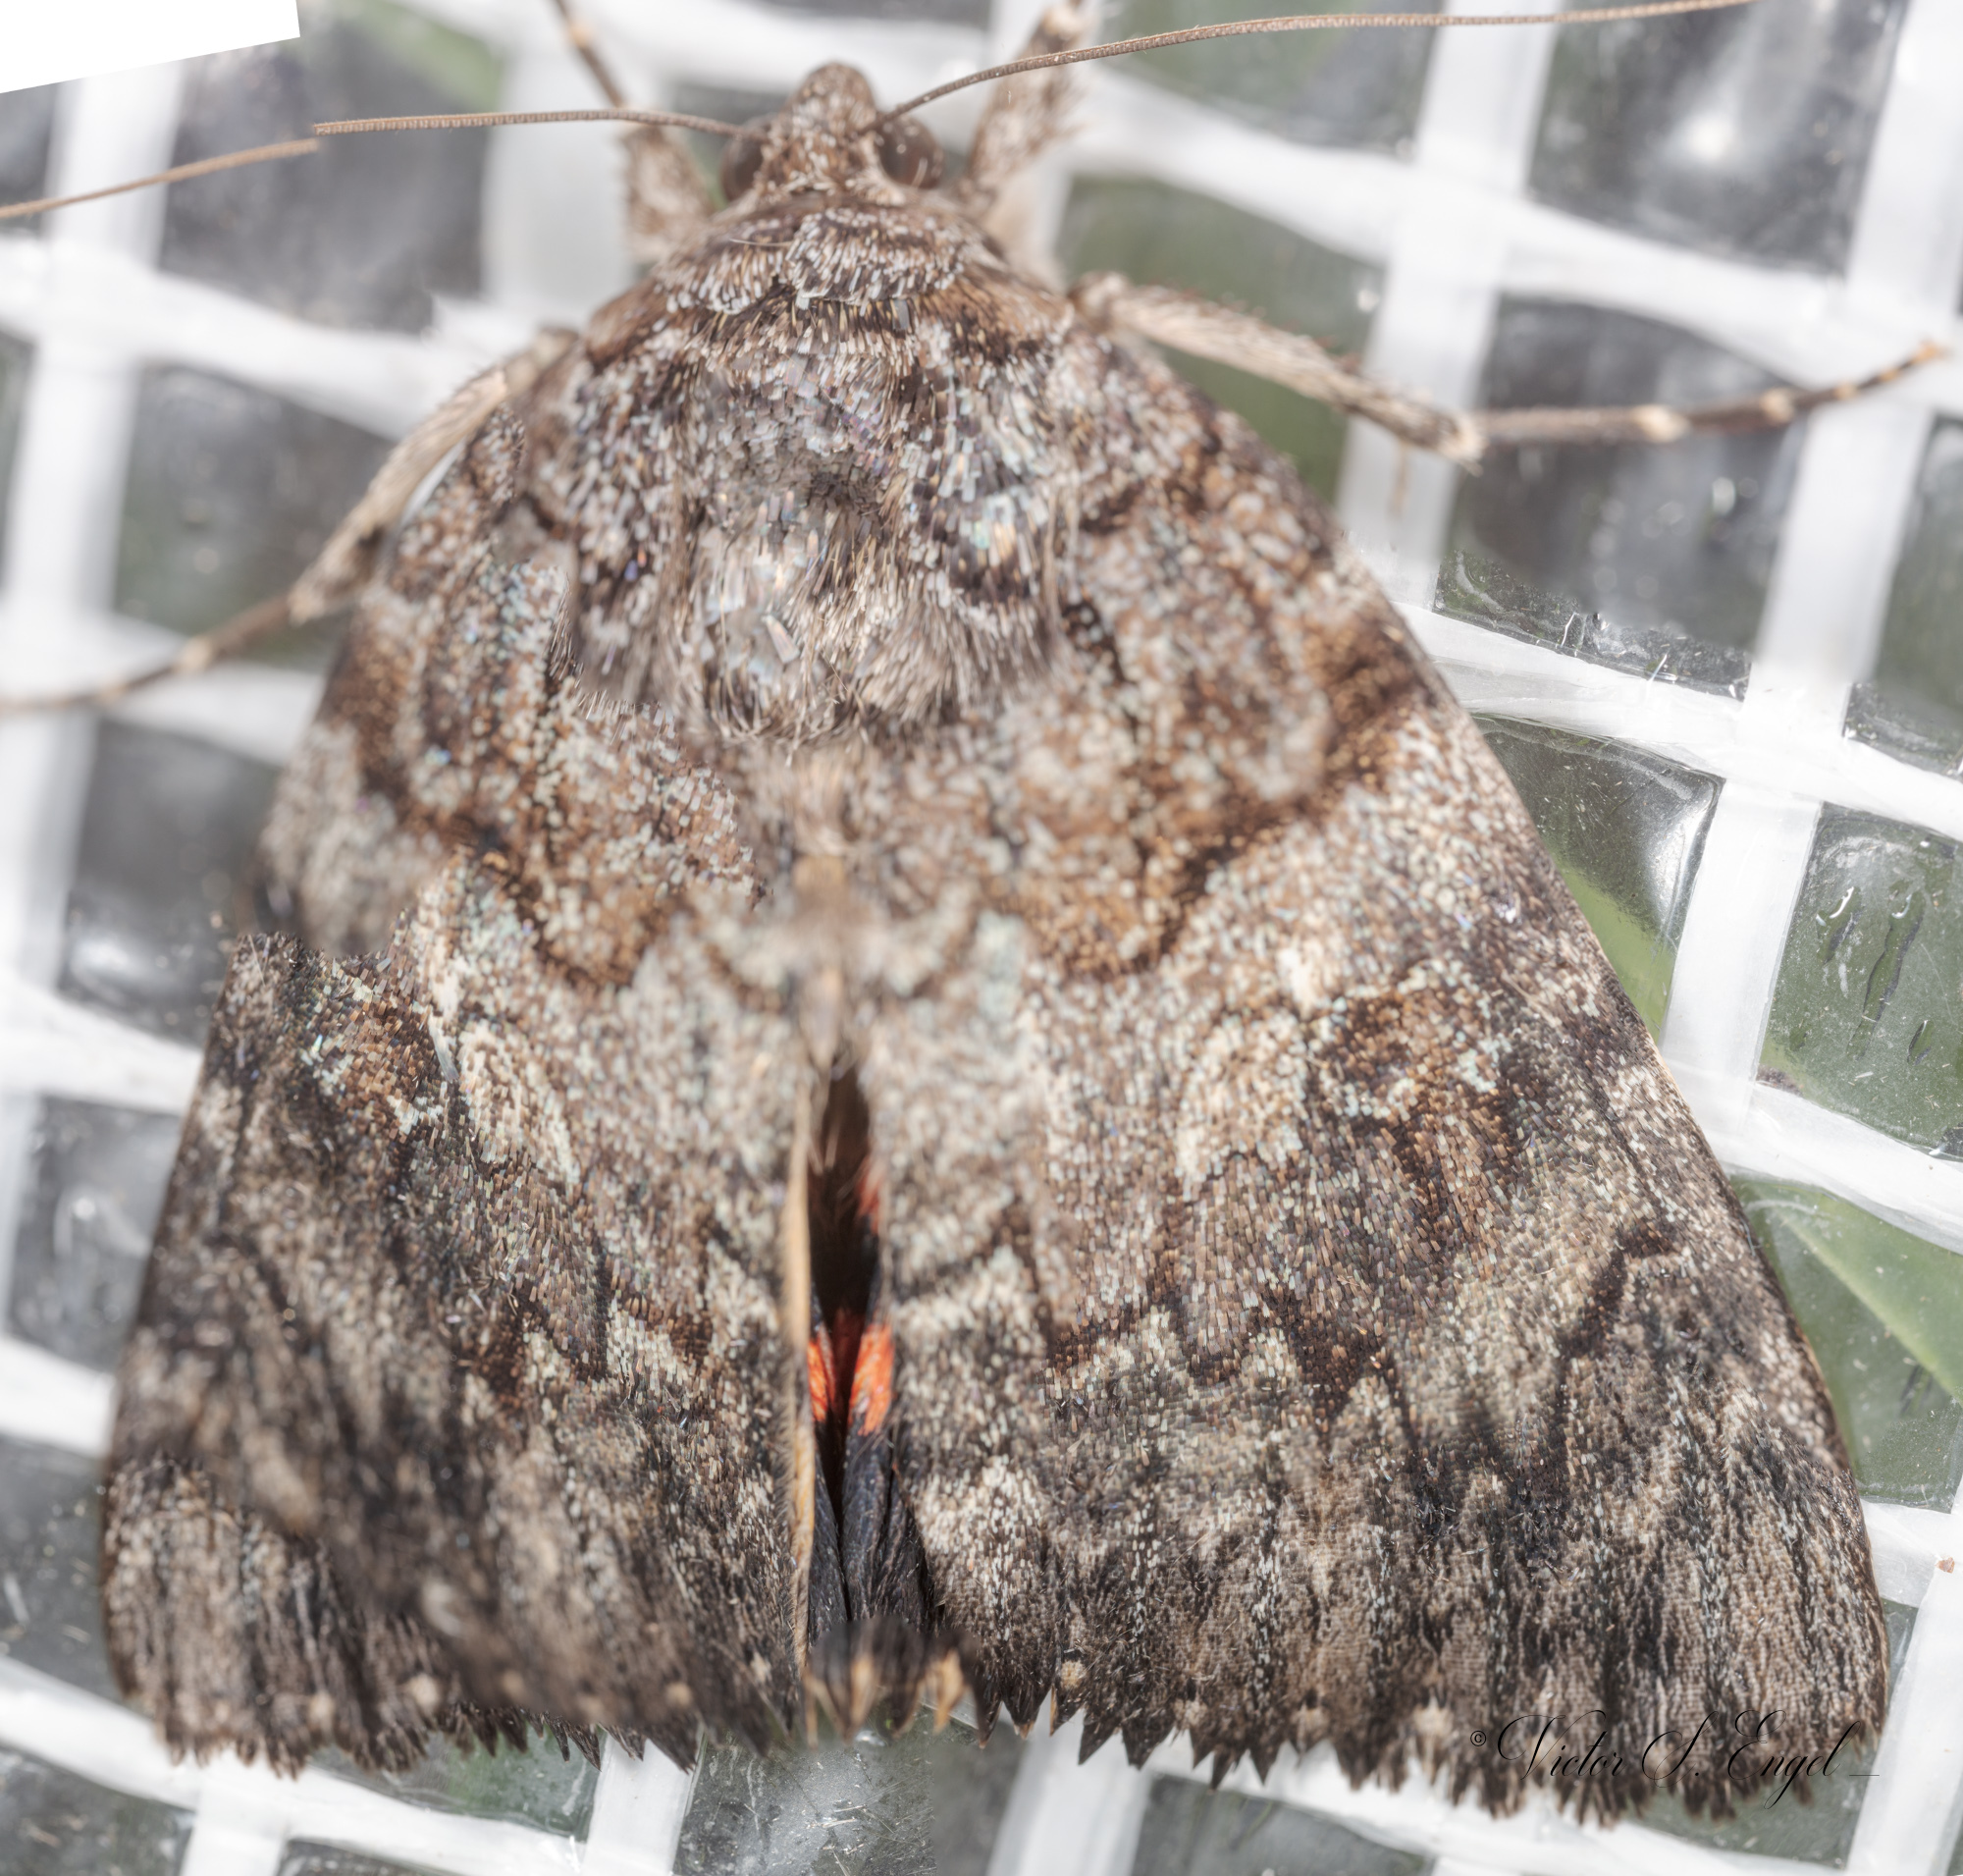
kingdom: Animalia
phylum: Arthropoda
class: Insecta
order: Lepidoptera
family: Erebidae
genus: Catocala
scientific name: Catocala umbrosa
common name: Umber underwing
